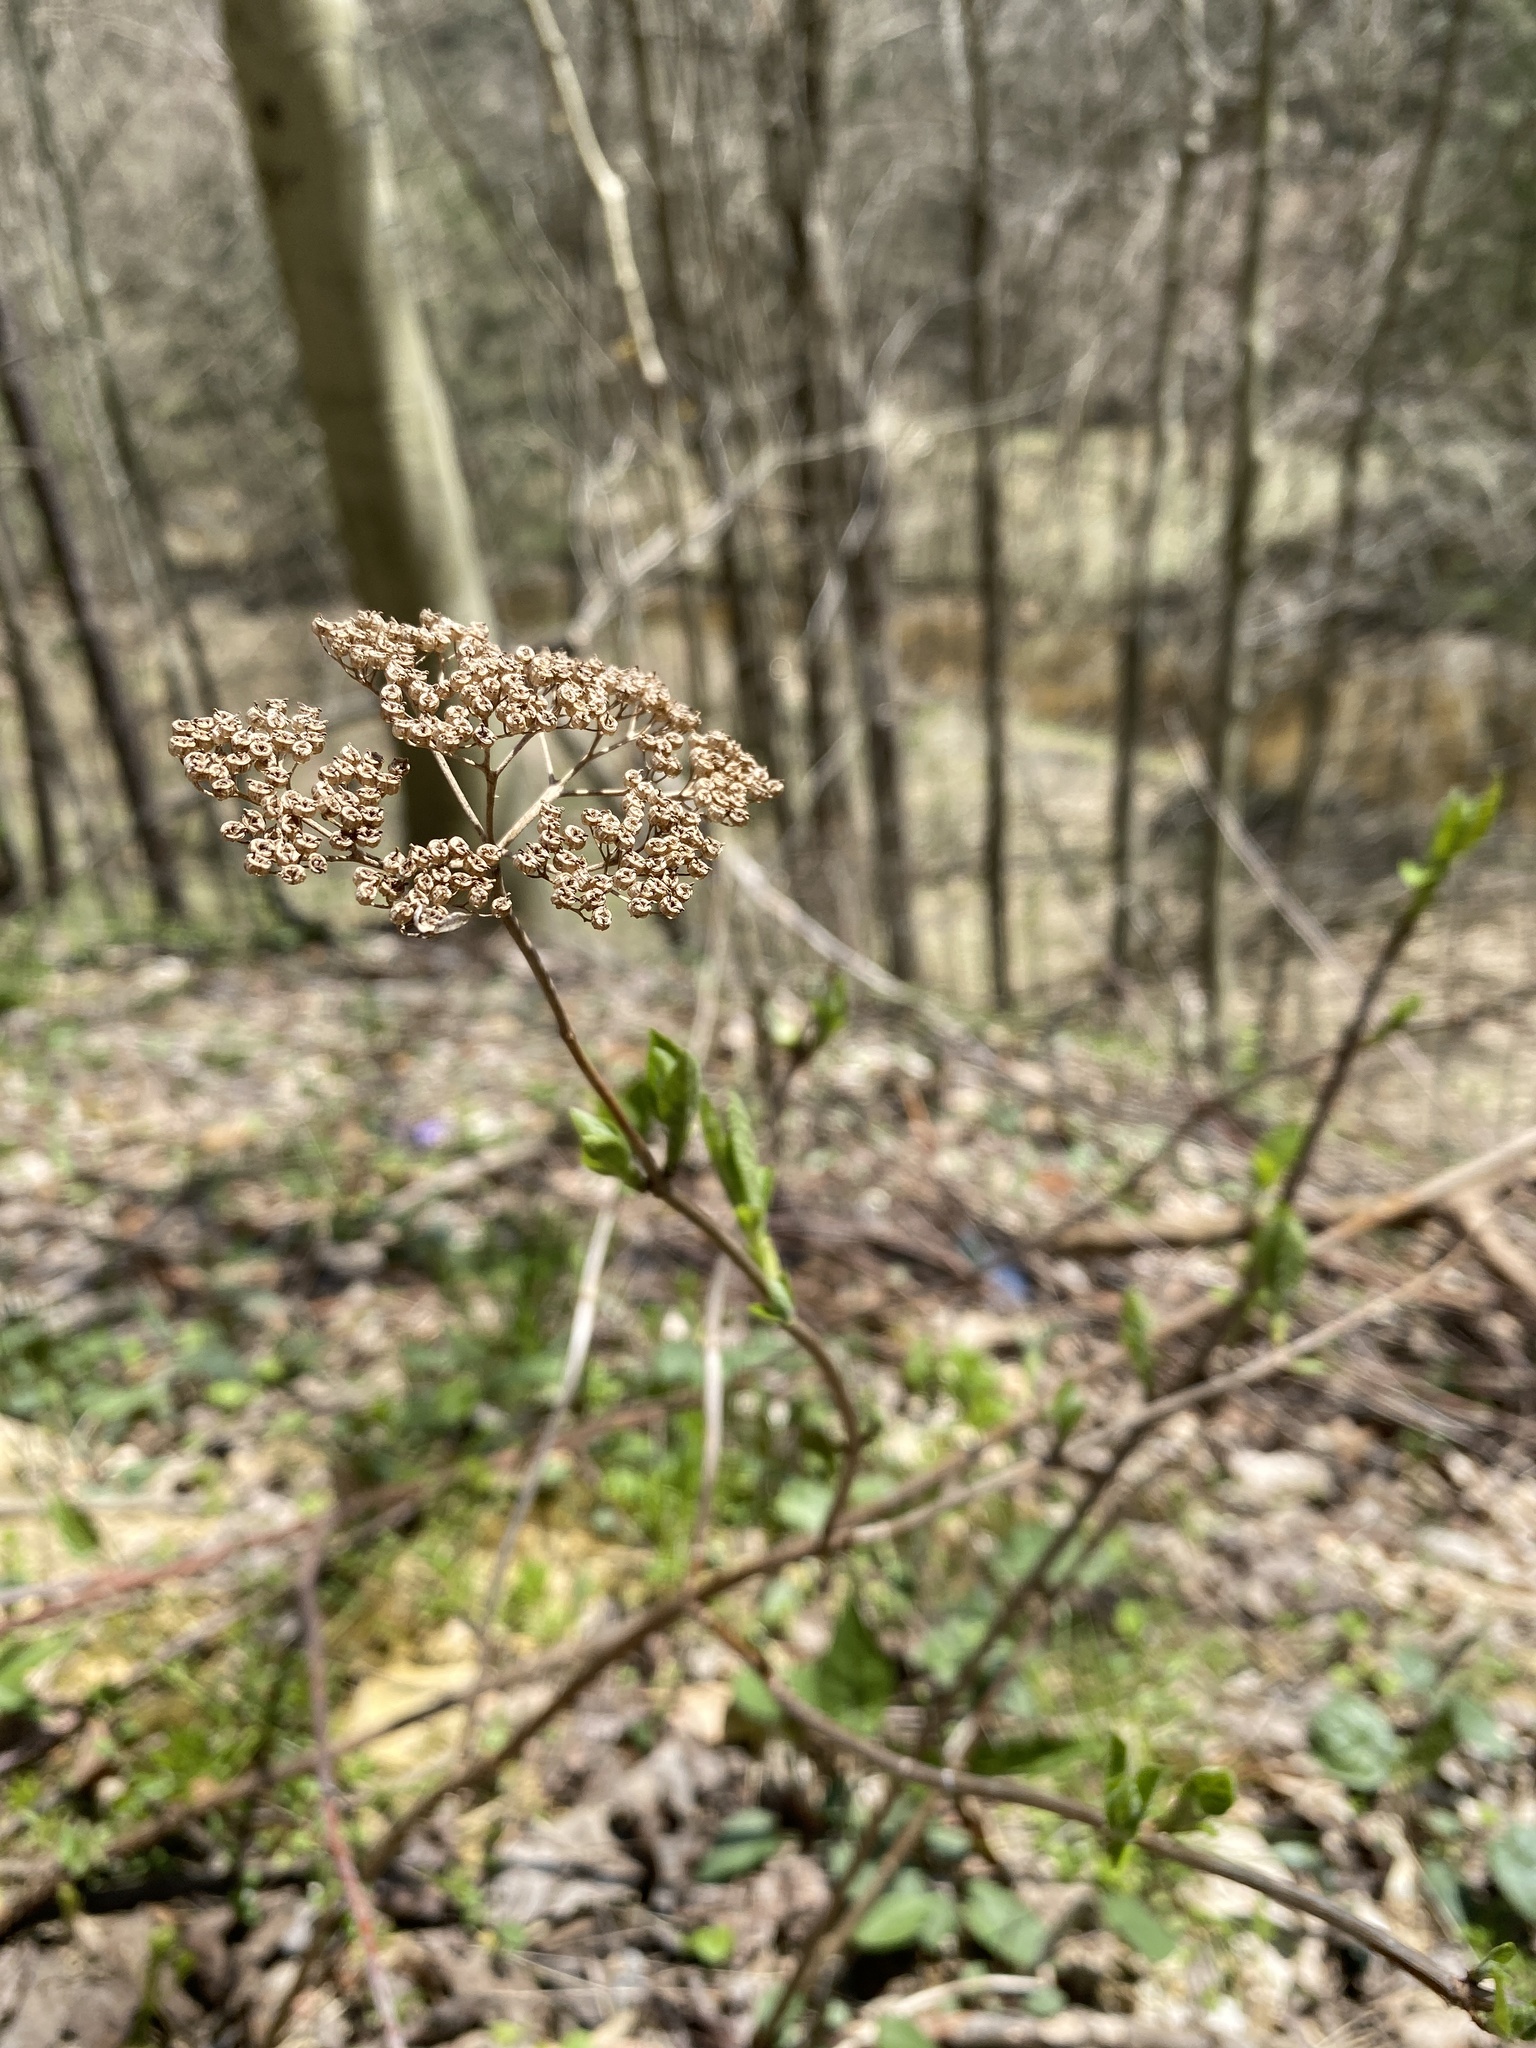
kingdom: Plantae
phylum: Tracheophyta
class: Magnoliopsida
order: Cornales
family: Hydrangeaceae
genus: Hydrangea
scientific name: Hydrangea arborescens
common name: Sevenbark
